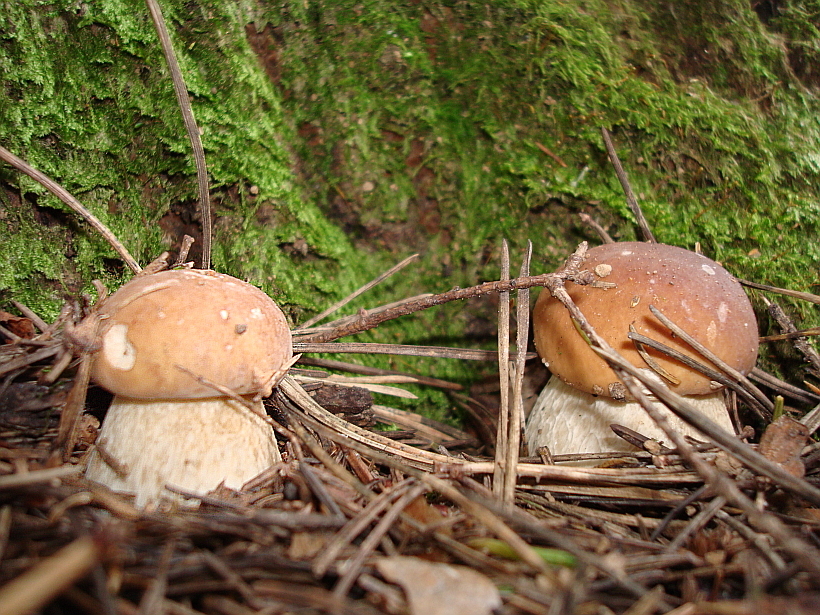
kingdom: Fungi
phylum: Basidiomycota
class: Agaricomycetes
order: Boletales
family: Boletaceae
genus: Boletus
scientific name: Boletus edulis
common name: Cep
